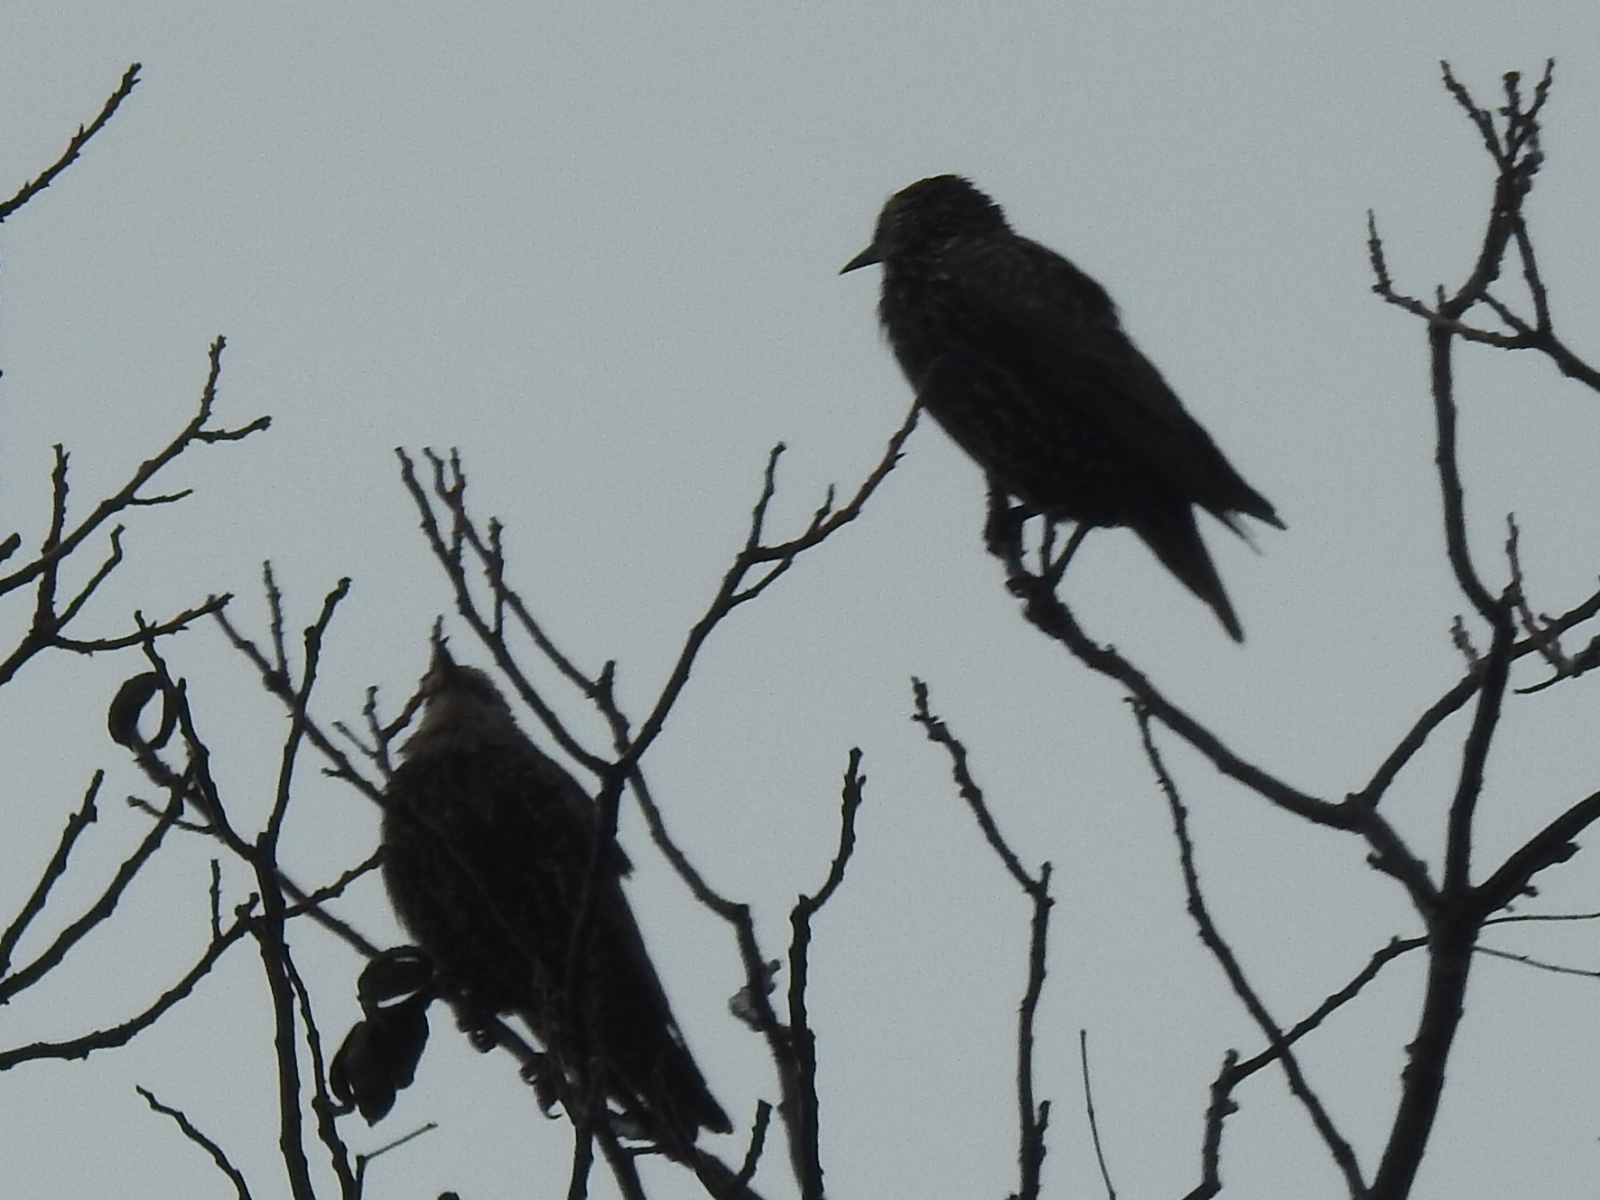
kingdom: Animalia
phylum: Chordata
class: Aves
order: Passeriformes
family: Sturnidae
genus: Sturnus
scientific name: Sturnus vulgaris
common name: Common starling
